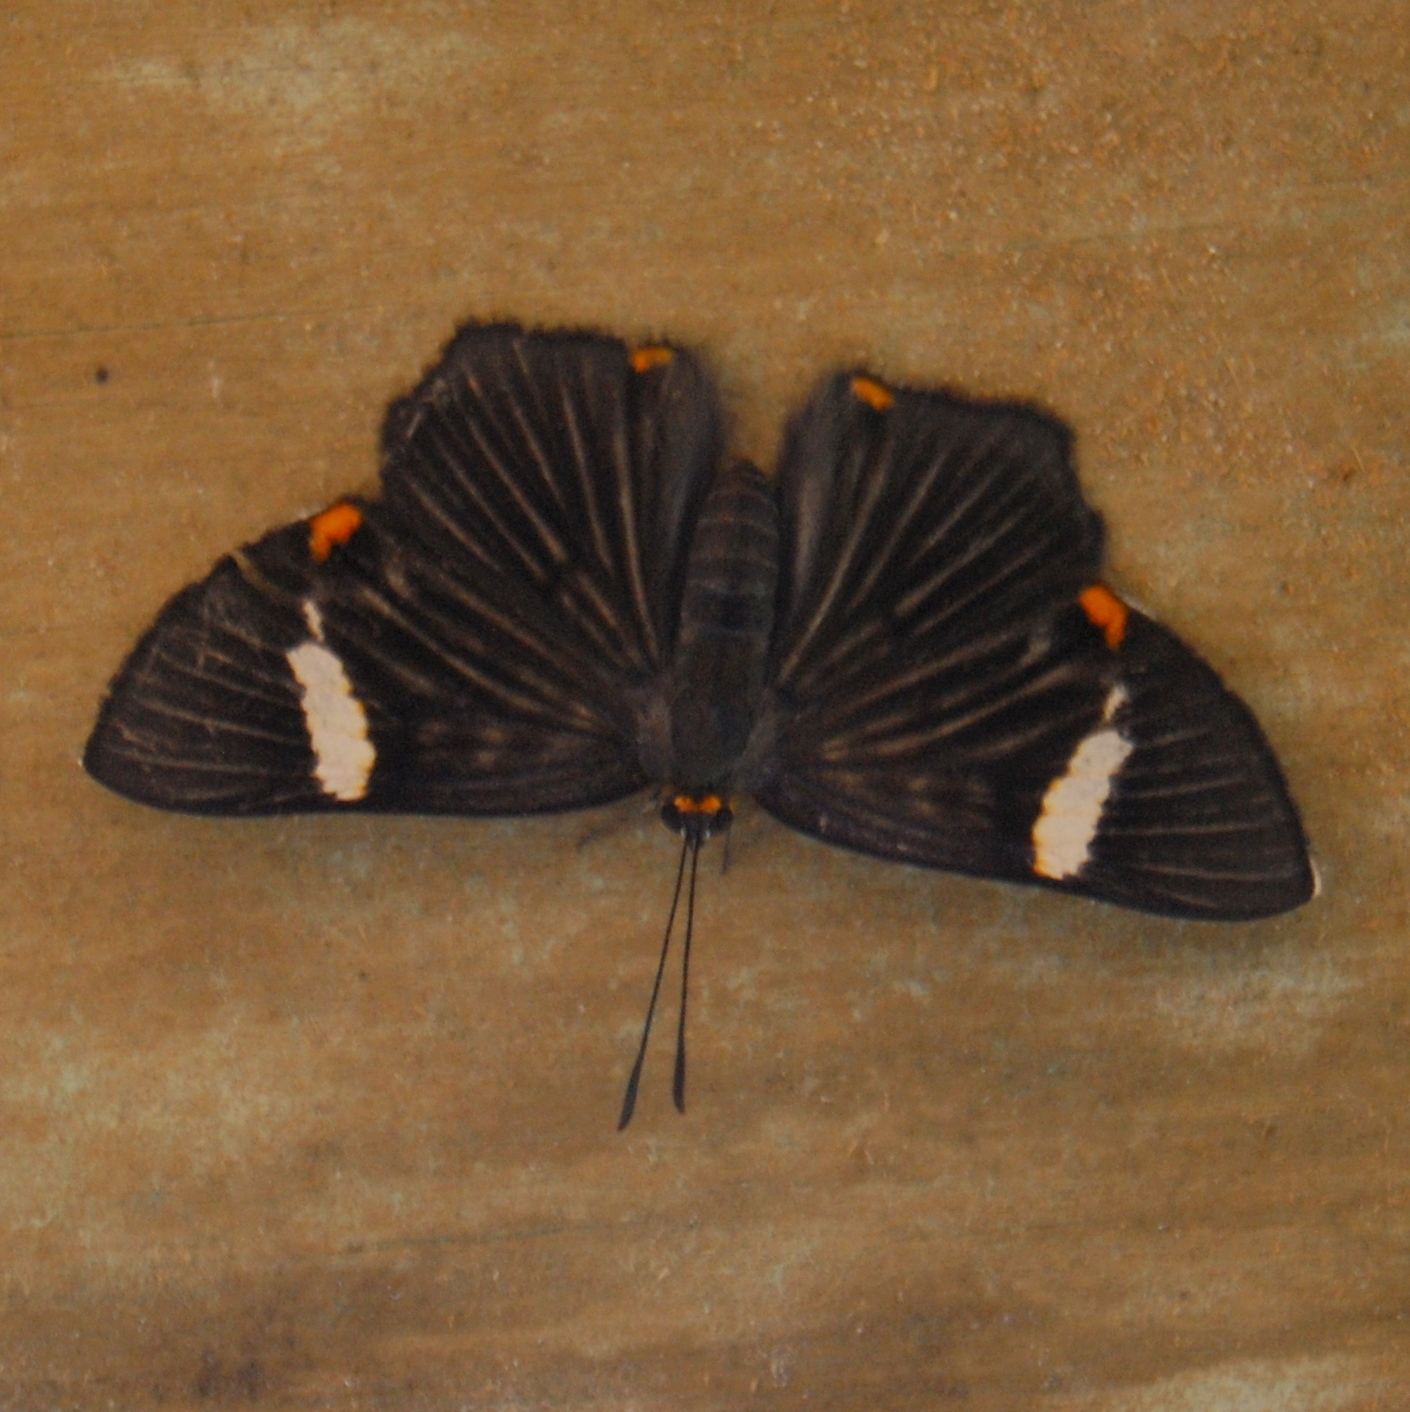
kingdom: Animalia
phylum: Arthropoda
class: Insecta
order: Lepidoptera
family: Riodinidae
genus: Riodina
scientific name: Riodina lycisca
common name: Lycisca metalmark
